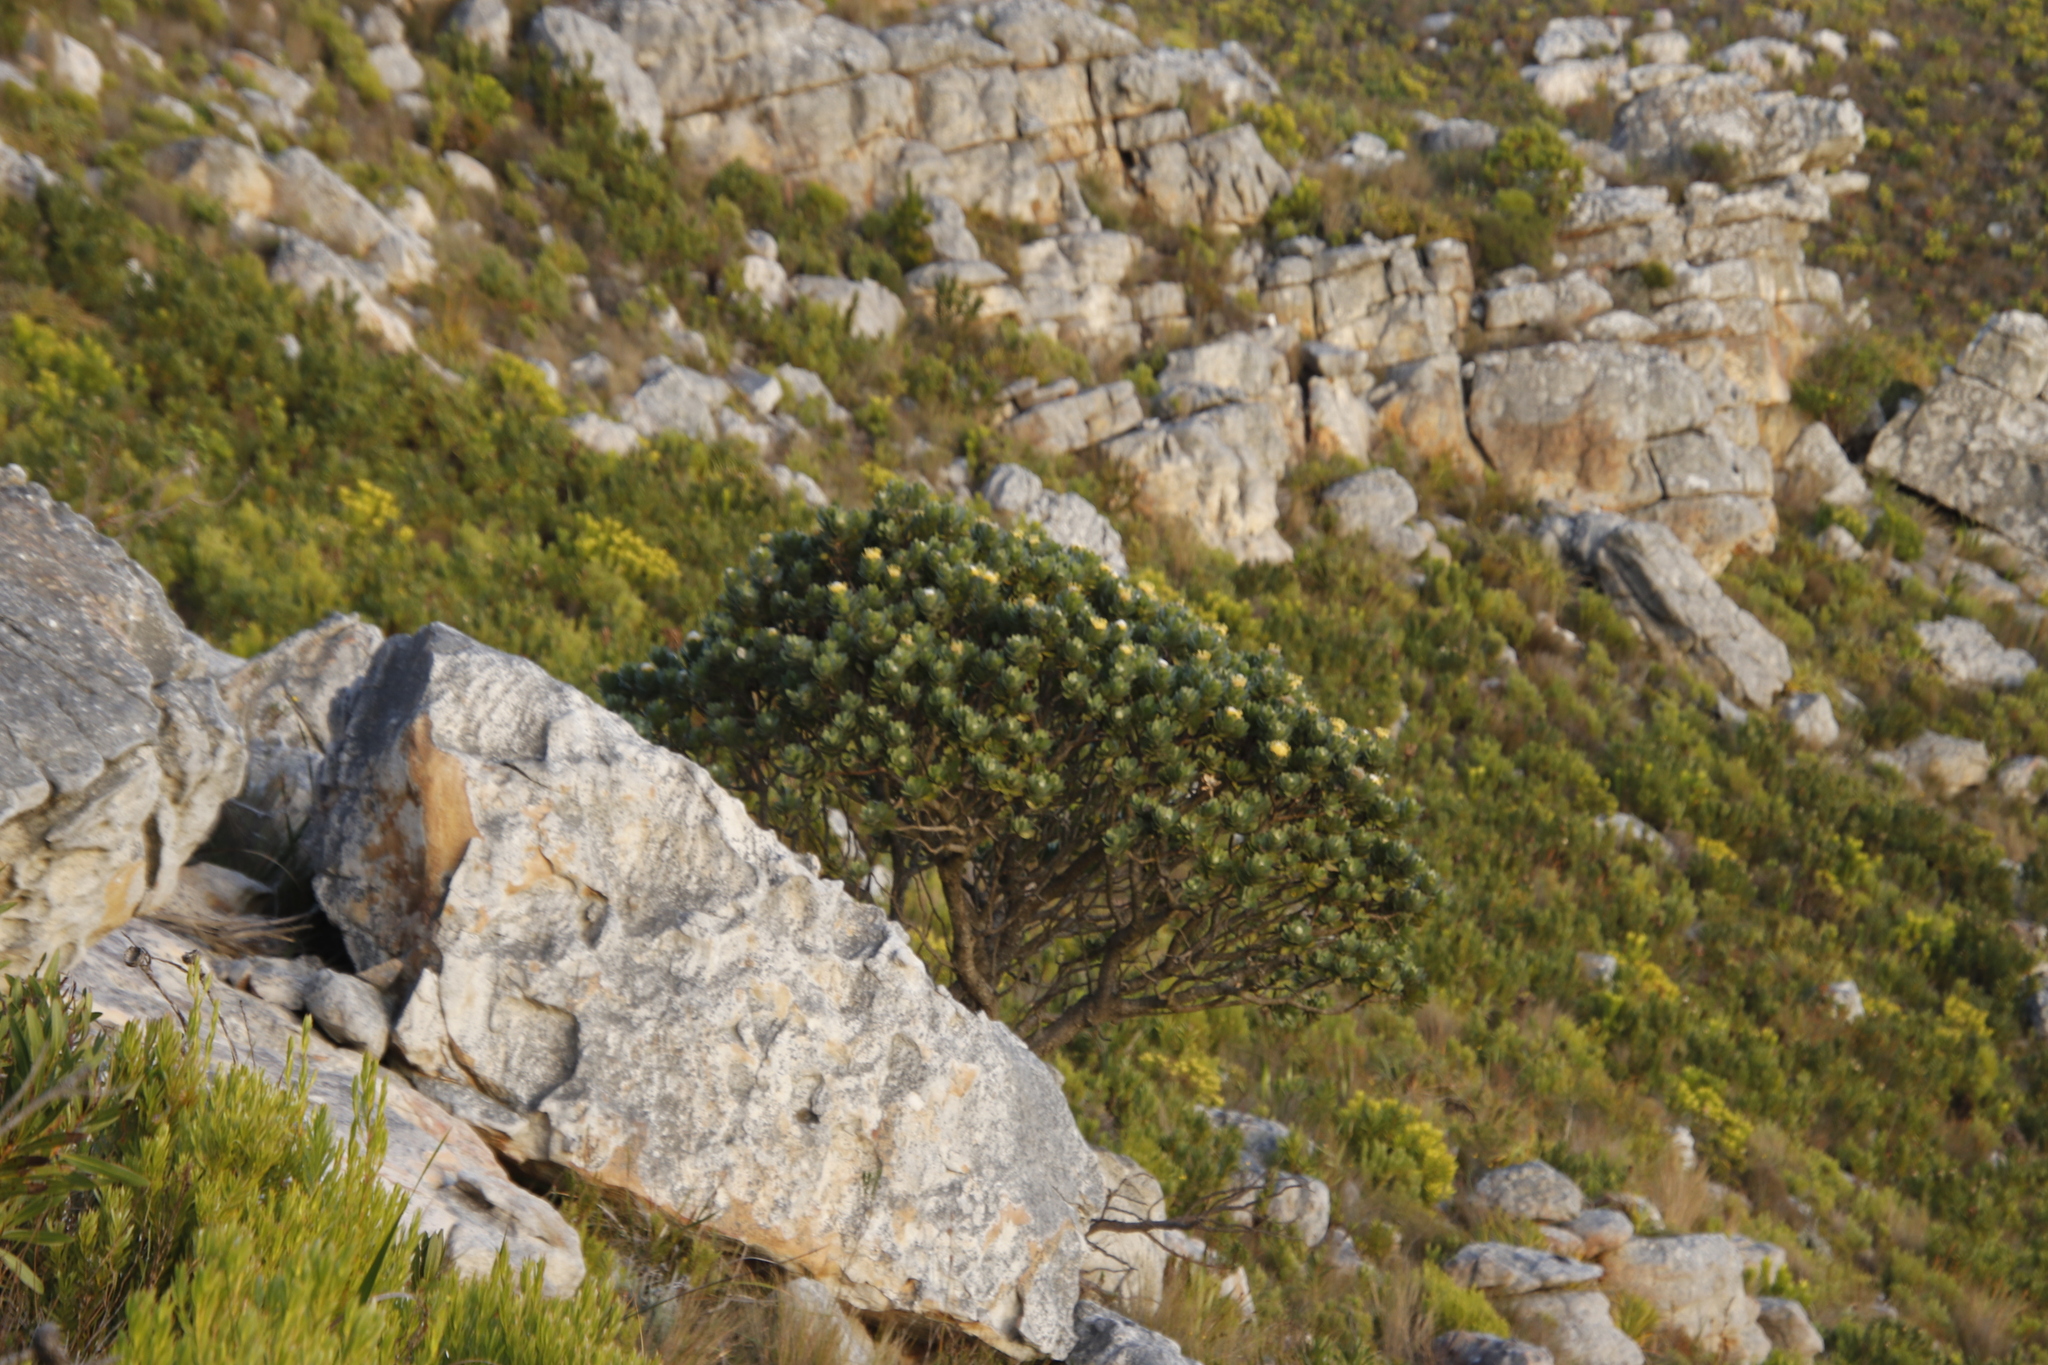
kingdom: Plantae
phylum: Tracheophyta
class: Magnoliopsida
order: Proteales
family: Proteaceae
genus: Leucospermum
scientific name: Leucospermum conocarpodendron
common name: Tree pincushion
